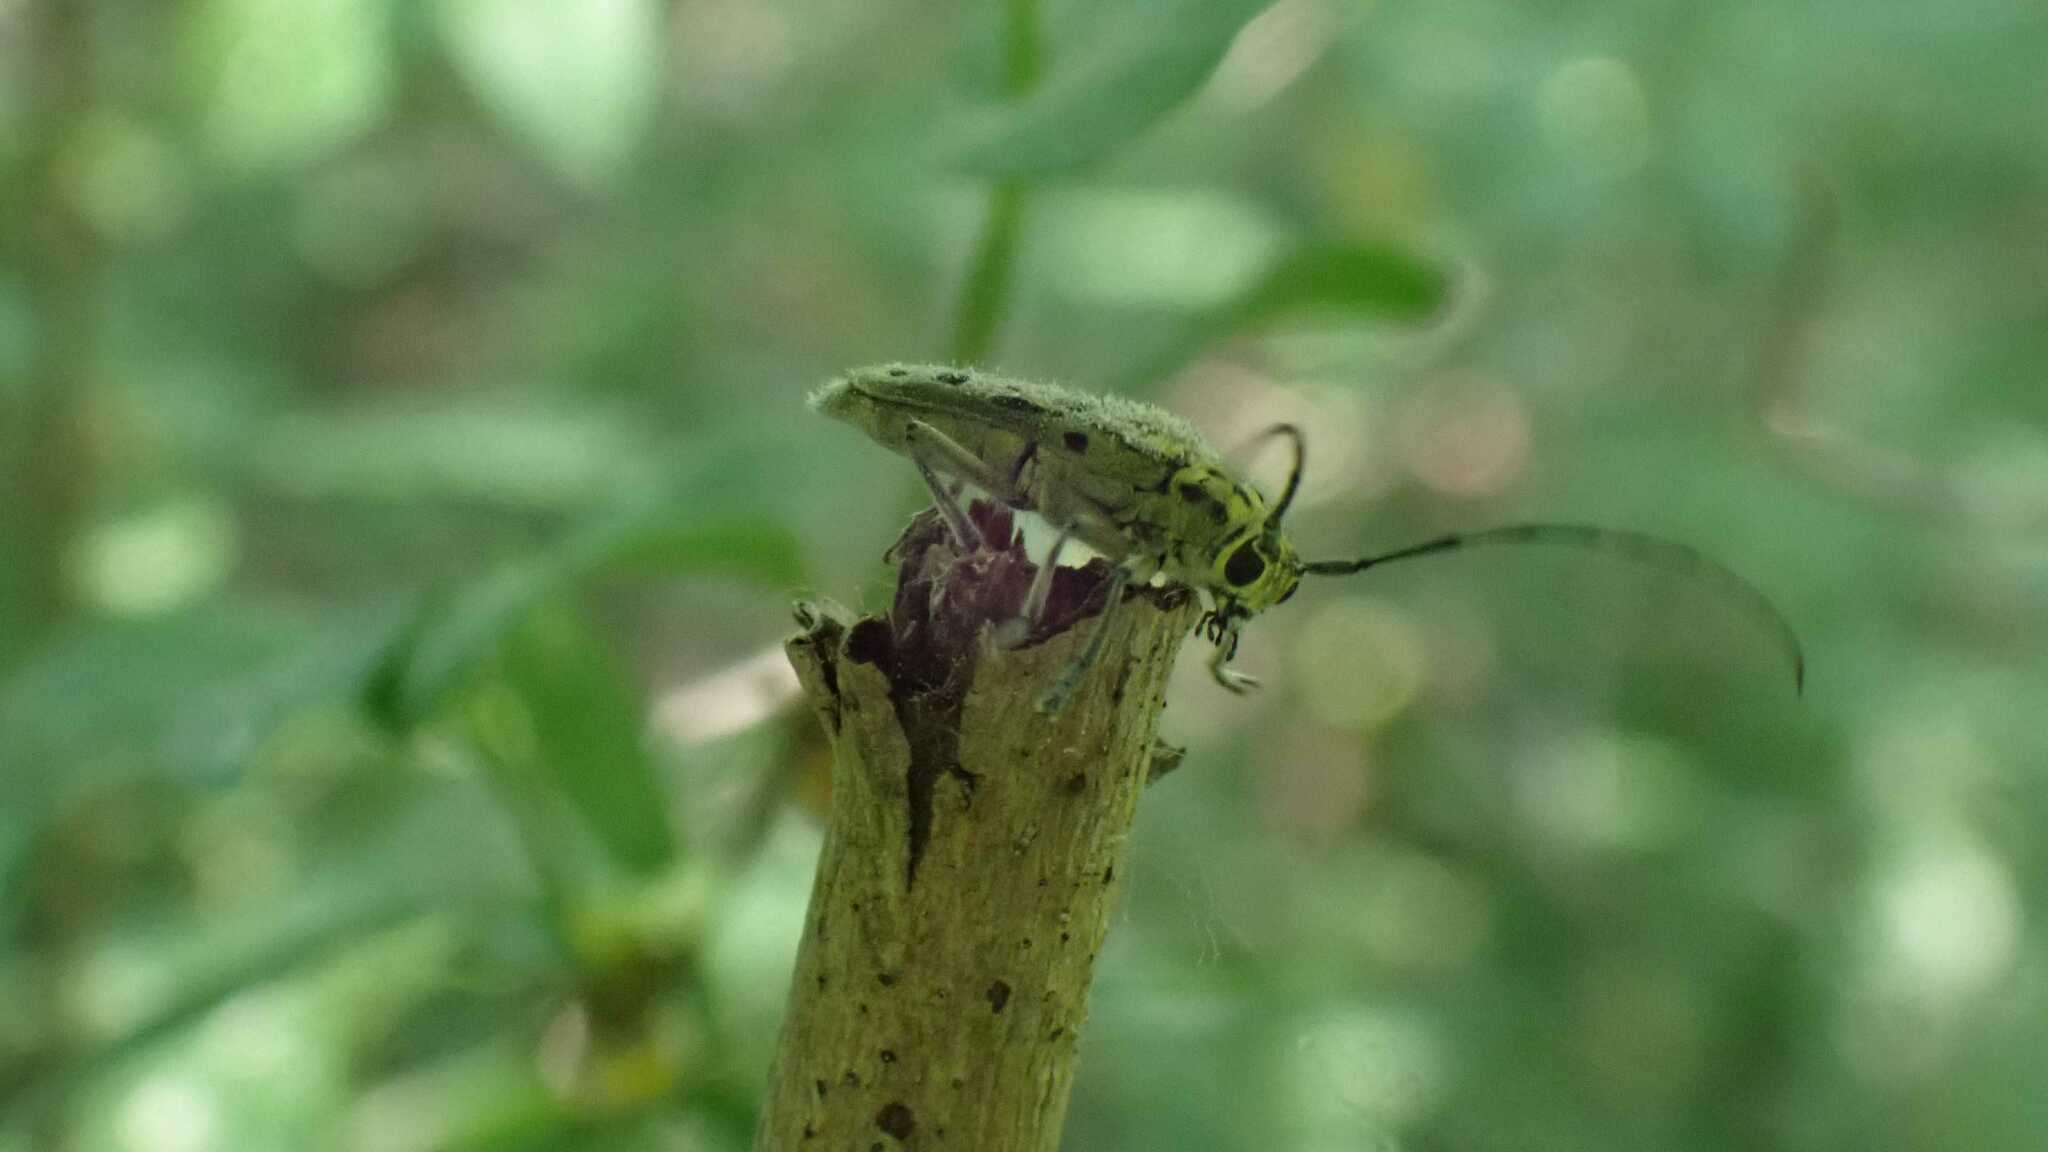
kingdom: Animalia
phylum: Arthropoda
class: Insecta
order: Coleoptera
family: Cerambycidae
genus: Saperda
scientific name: Saperda perforata
